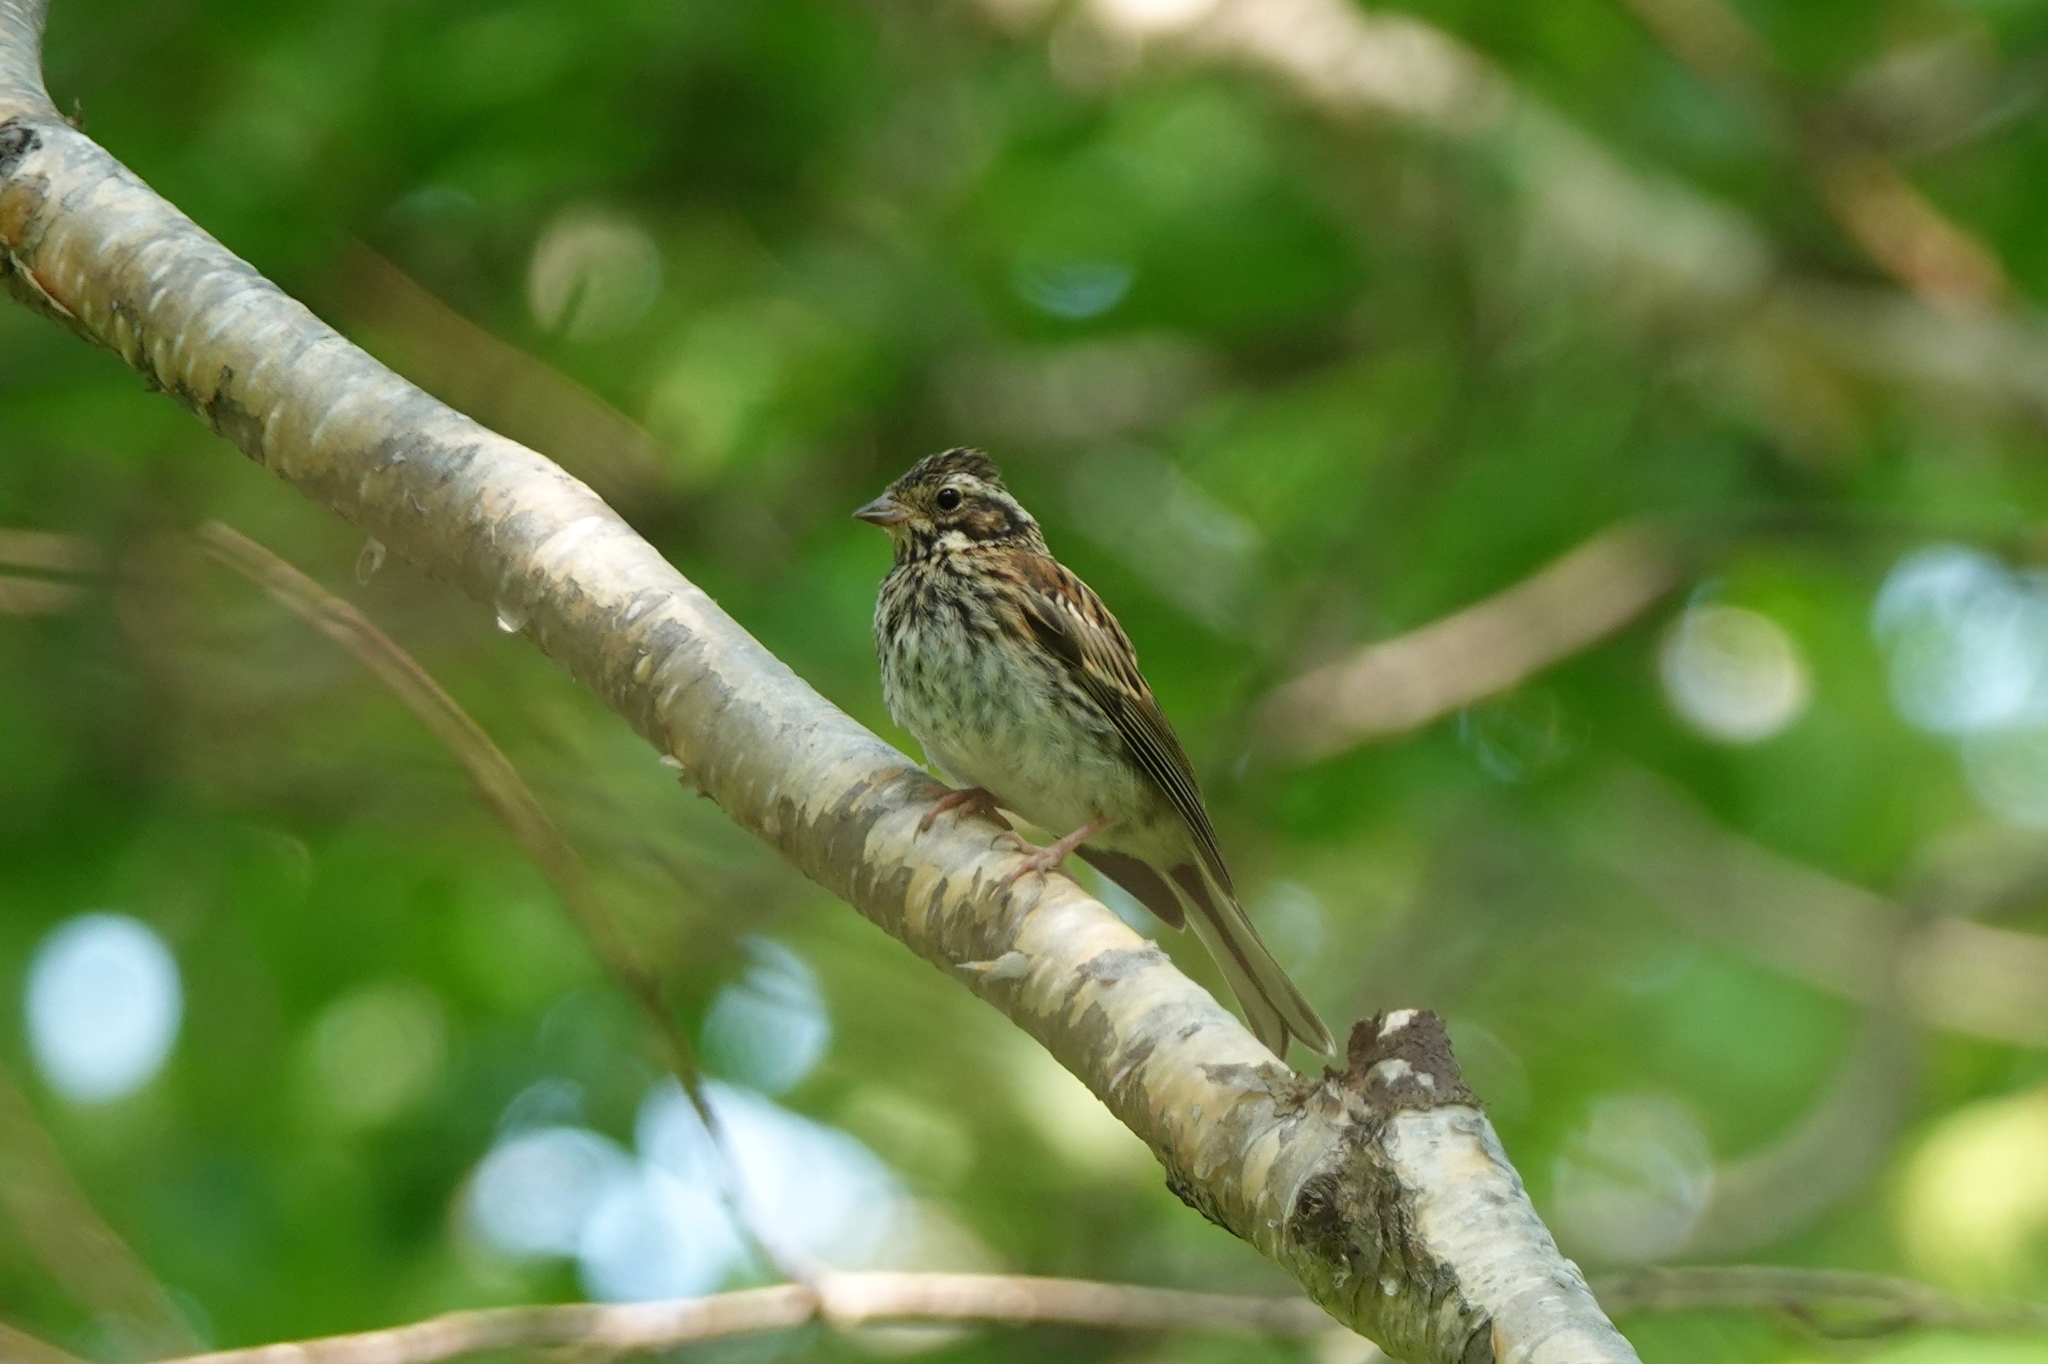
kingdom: Animalia
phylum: Chordata
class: Aves
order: Passeriformes
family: Emberizidae
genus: Emberiza
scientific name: Emberiza rustica
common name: Rustic bunting
